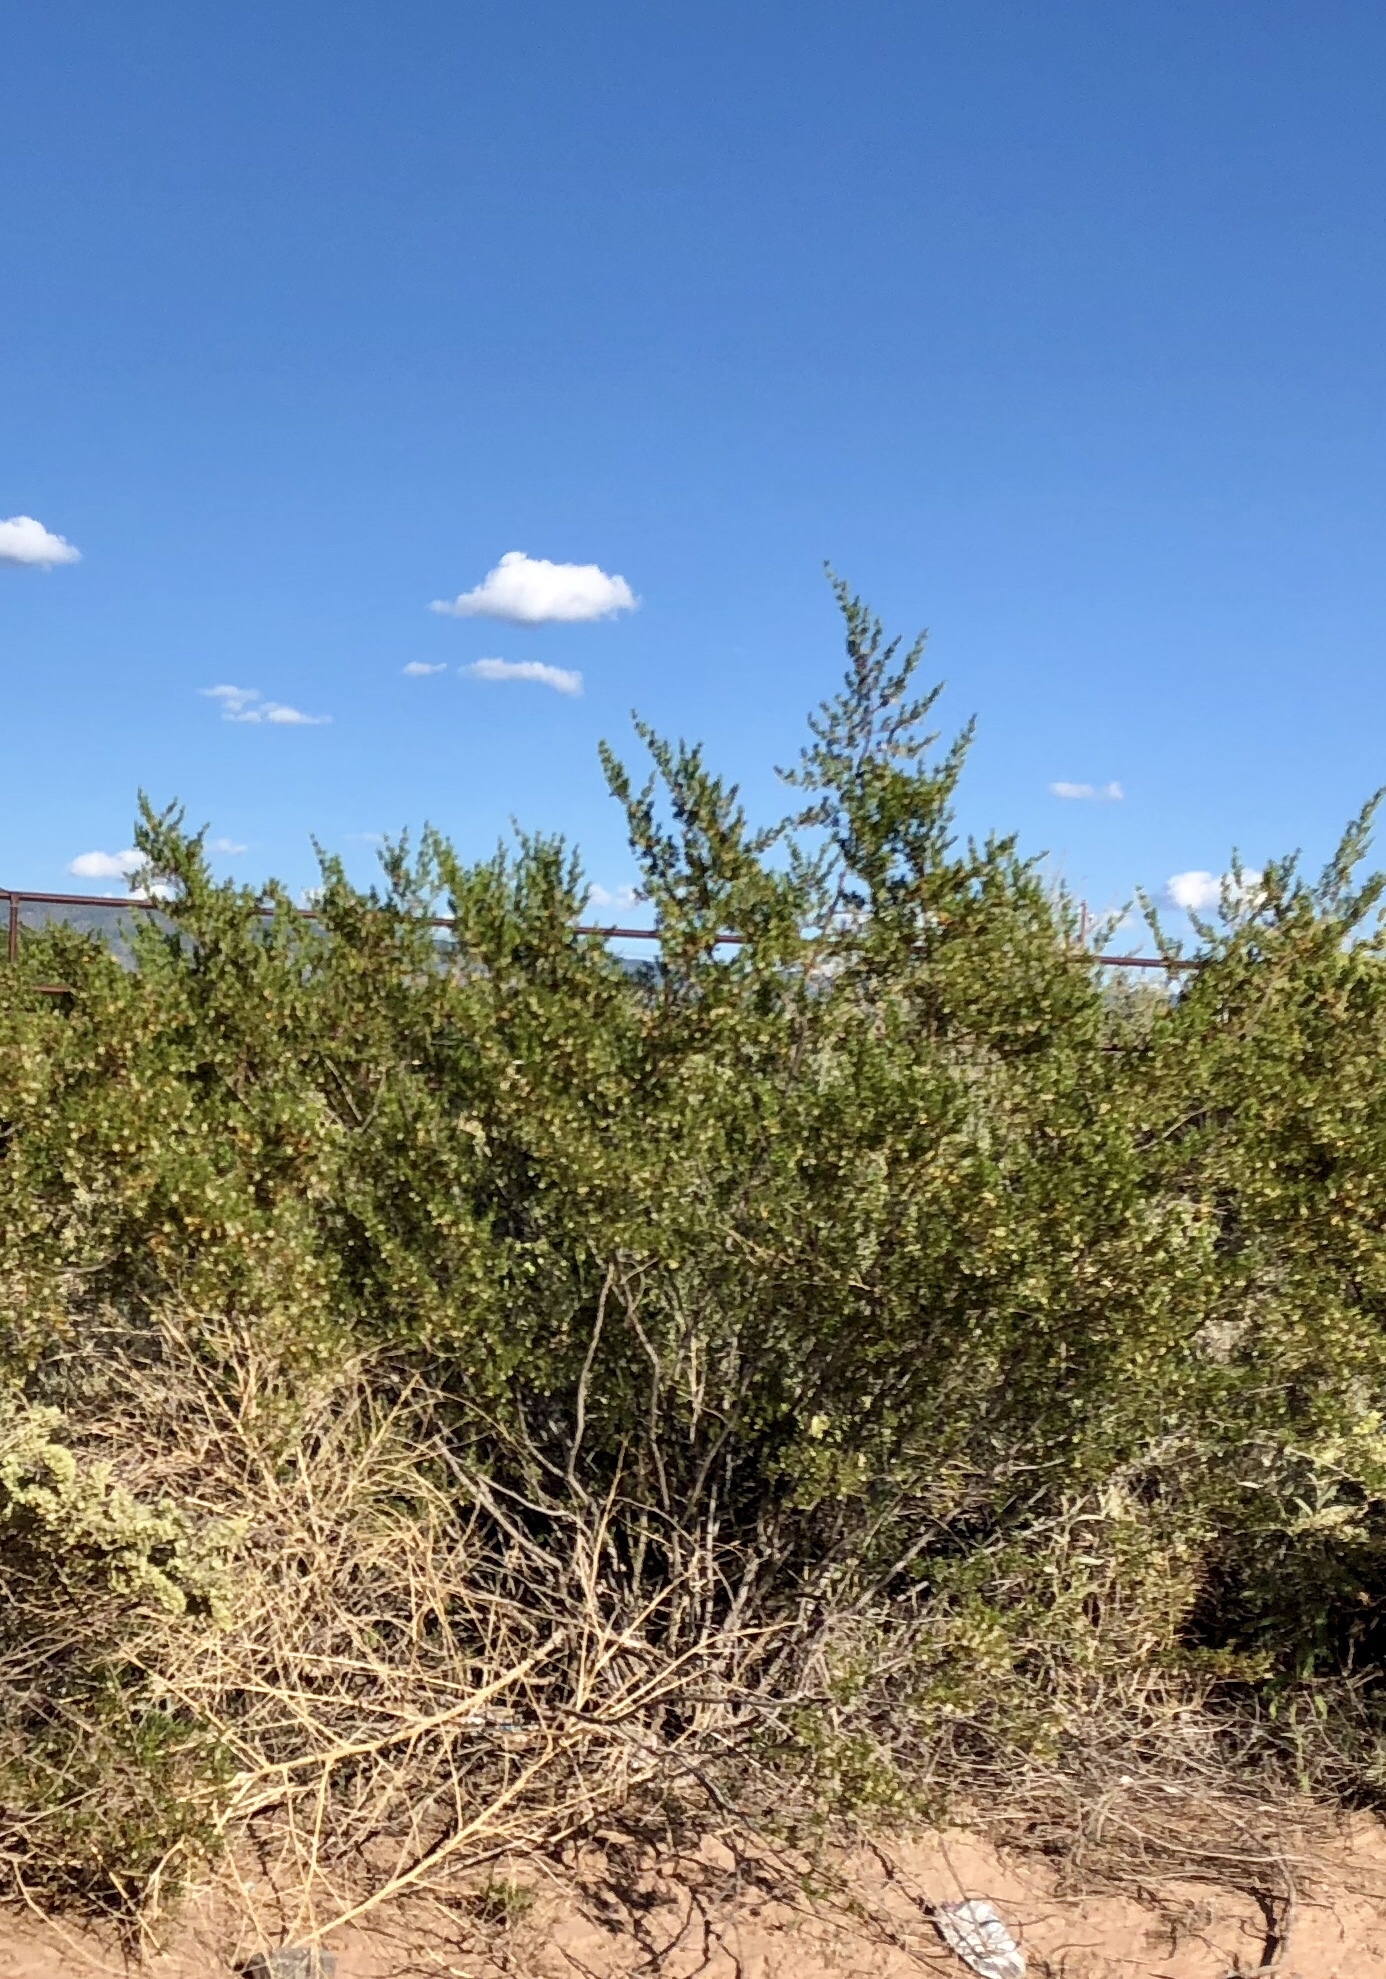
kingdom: Plantae
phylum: Tracheophyta
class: Magnoliopsida
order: Zygophyllales
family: Zygophyllaceae
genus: Larrea
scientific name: Larrea tridentata
